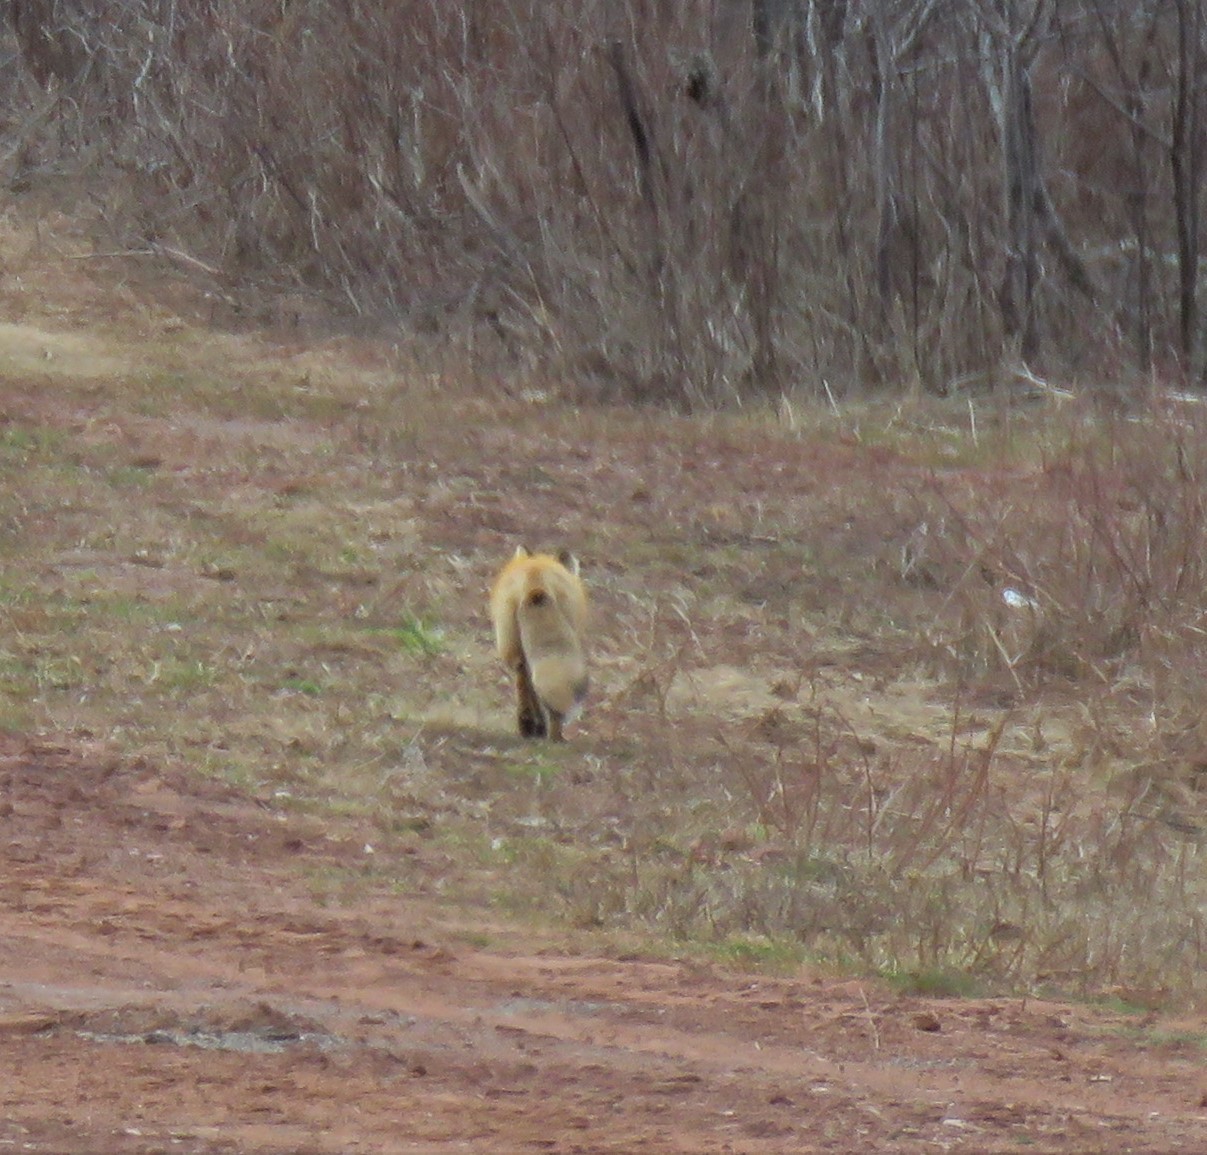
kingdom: Animalia
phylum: Chordata
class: Mammalia
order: Carnivora
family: Canidae
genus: Vulpes
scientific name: Vulpes vulpes
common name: Red fox
